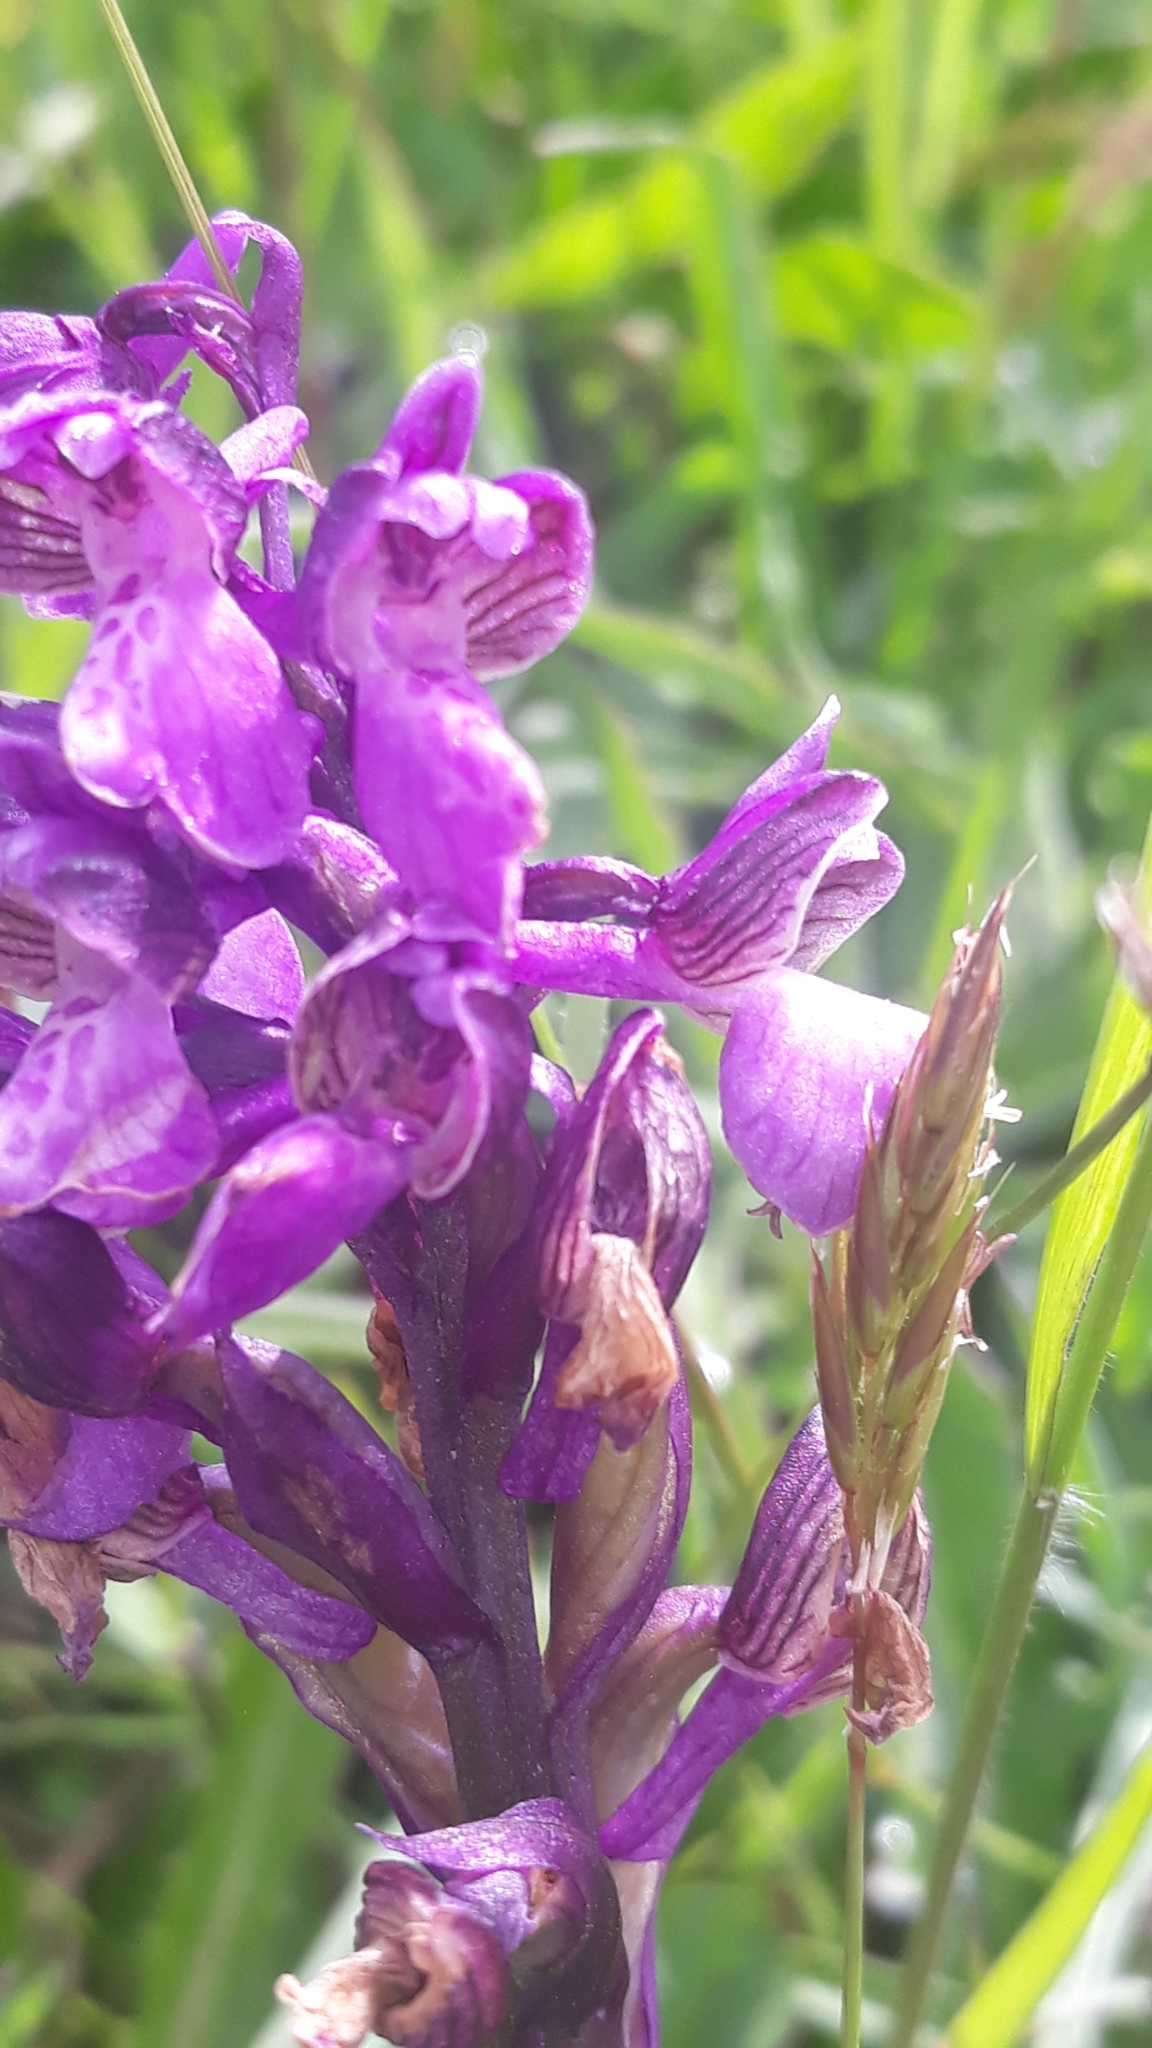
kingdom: Plantae
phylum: Tracheophyta
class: Liliopsida
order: Asparagales
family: Orchidaceae
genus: Anacamptis
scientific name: Anacamptis morio
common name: Green-winged orchid
